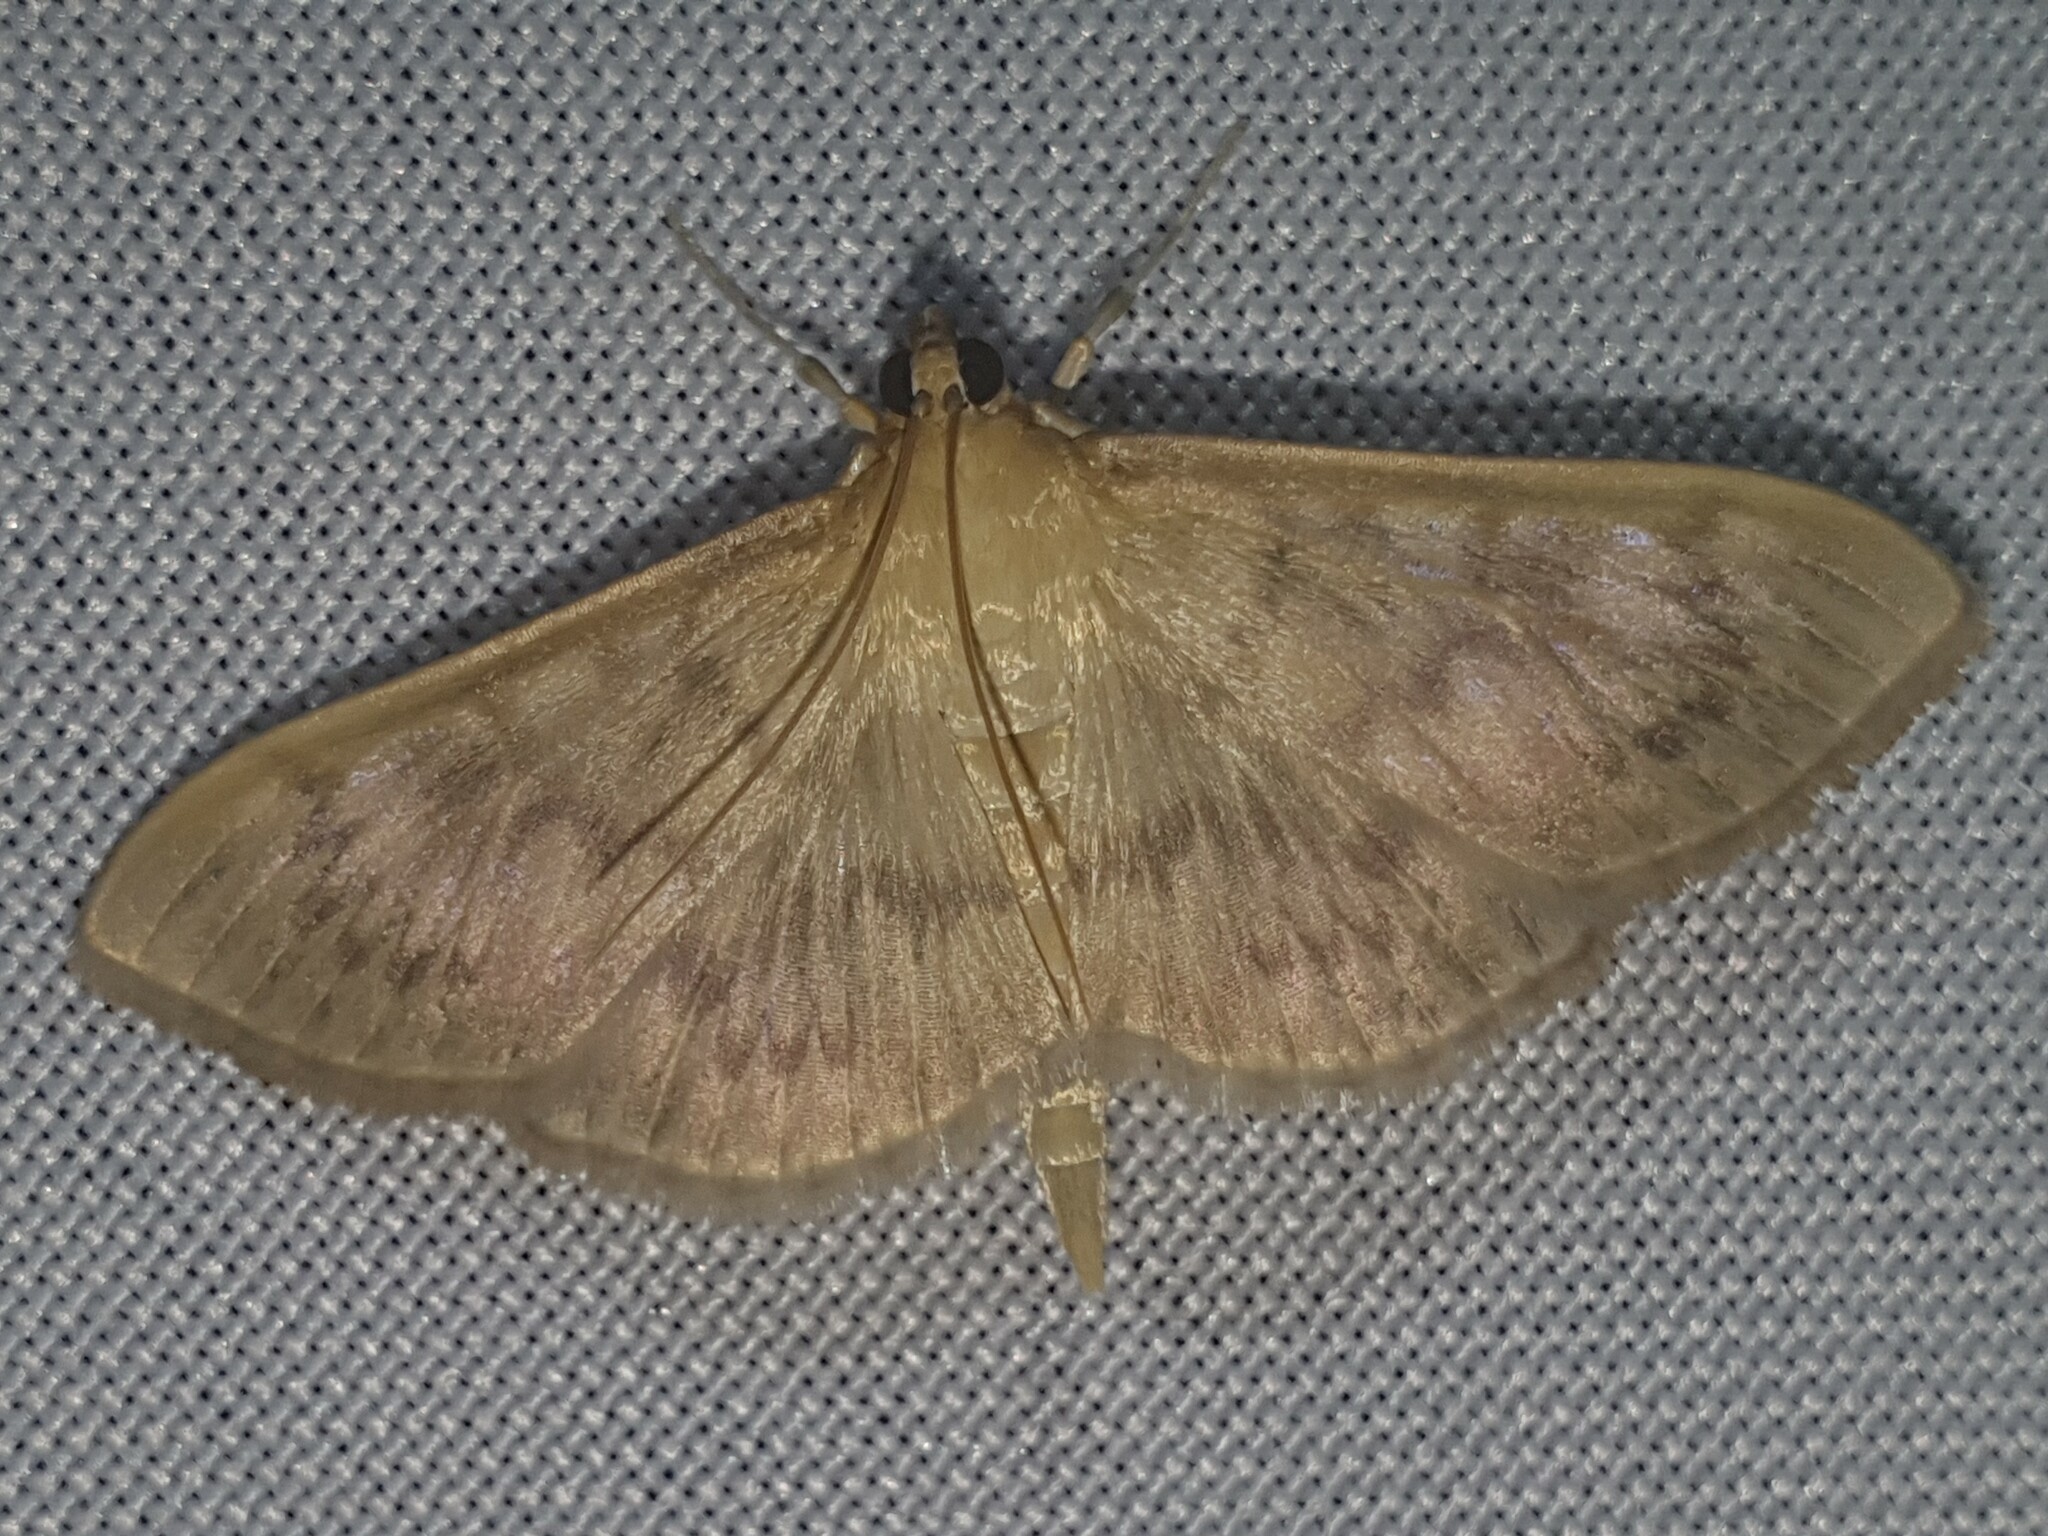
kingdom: Animalia
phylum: Arthropoda
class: Insecta
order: Lepidoptera
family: Crambidae
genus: Patania
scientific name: Patania ruralis
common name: Mother of pearl
